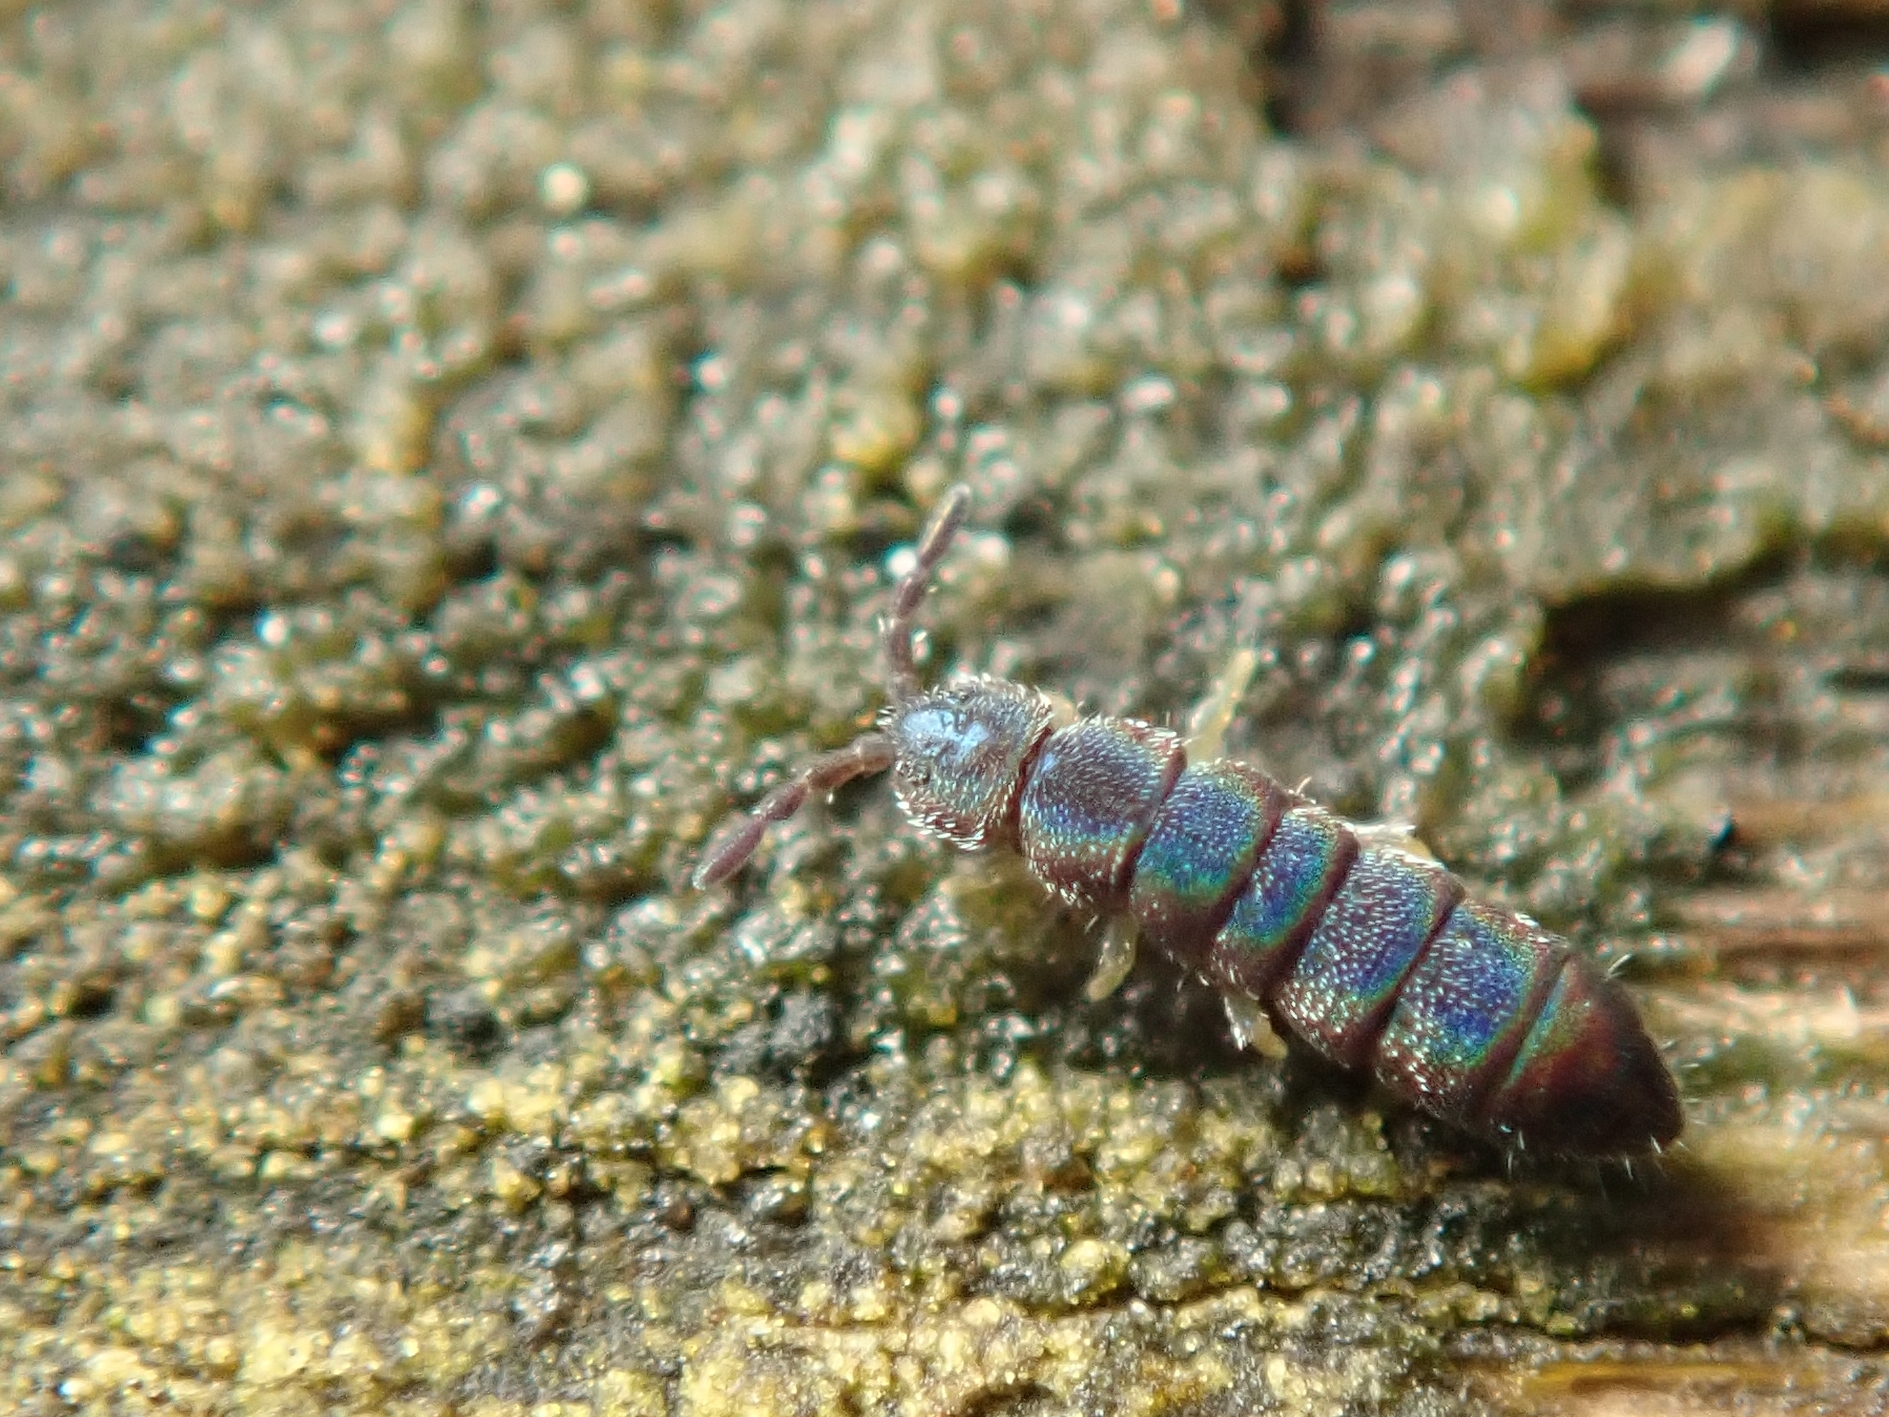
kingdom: Animalia
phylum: Arthropoda
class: Collembola
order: Entomobryomorpha
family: Isotomidae
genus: Vertagopus
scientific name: Vertagopus asiaticus
